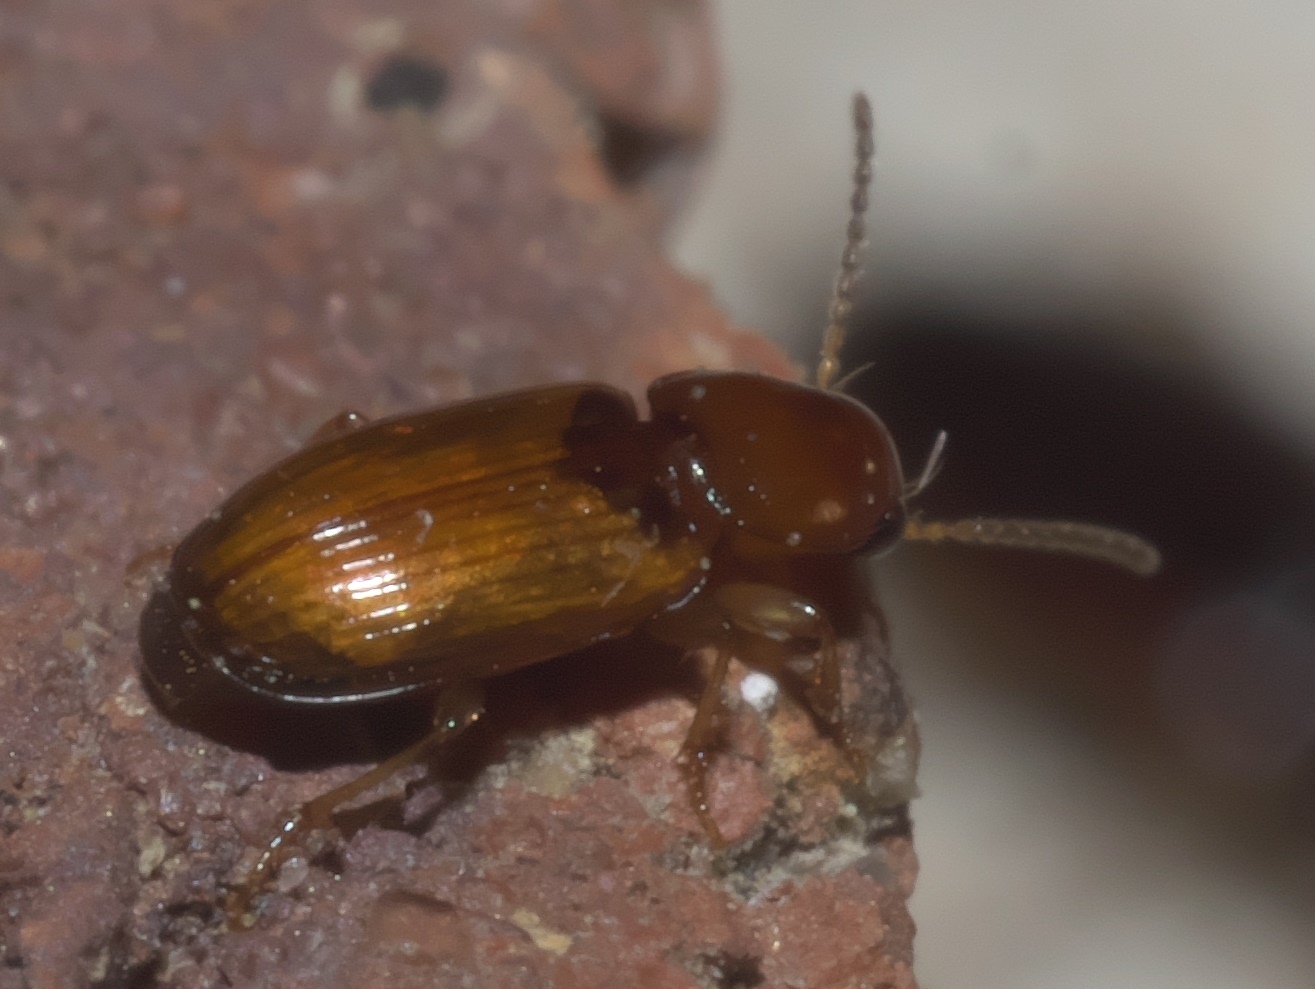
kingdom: Animalia
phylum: Arthropoda
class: Insecta
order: Coleoptera
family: Carabidae
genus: Acupalpus
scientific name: Acupalpus testaceus
